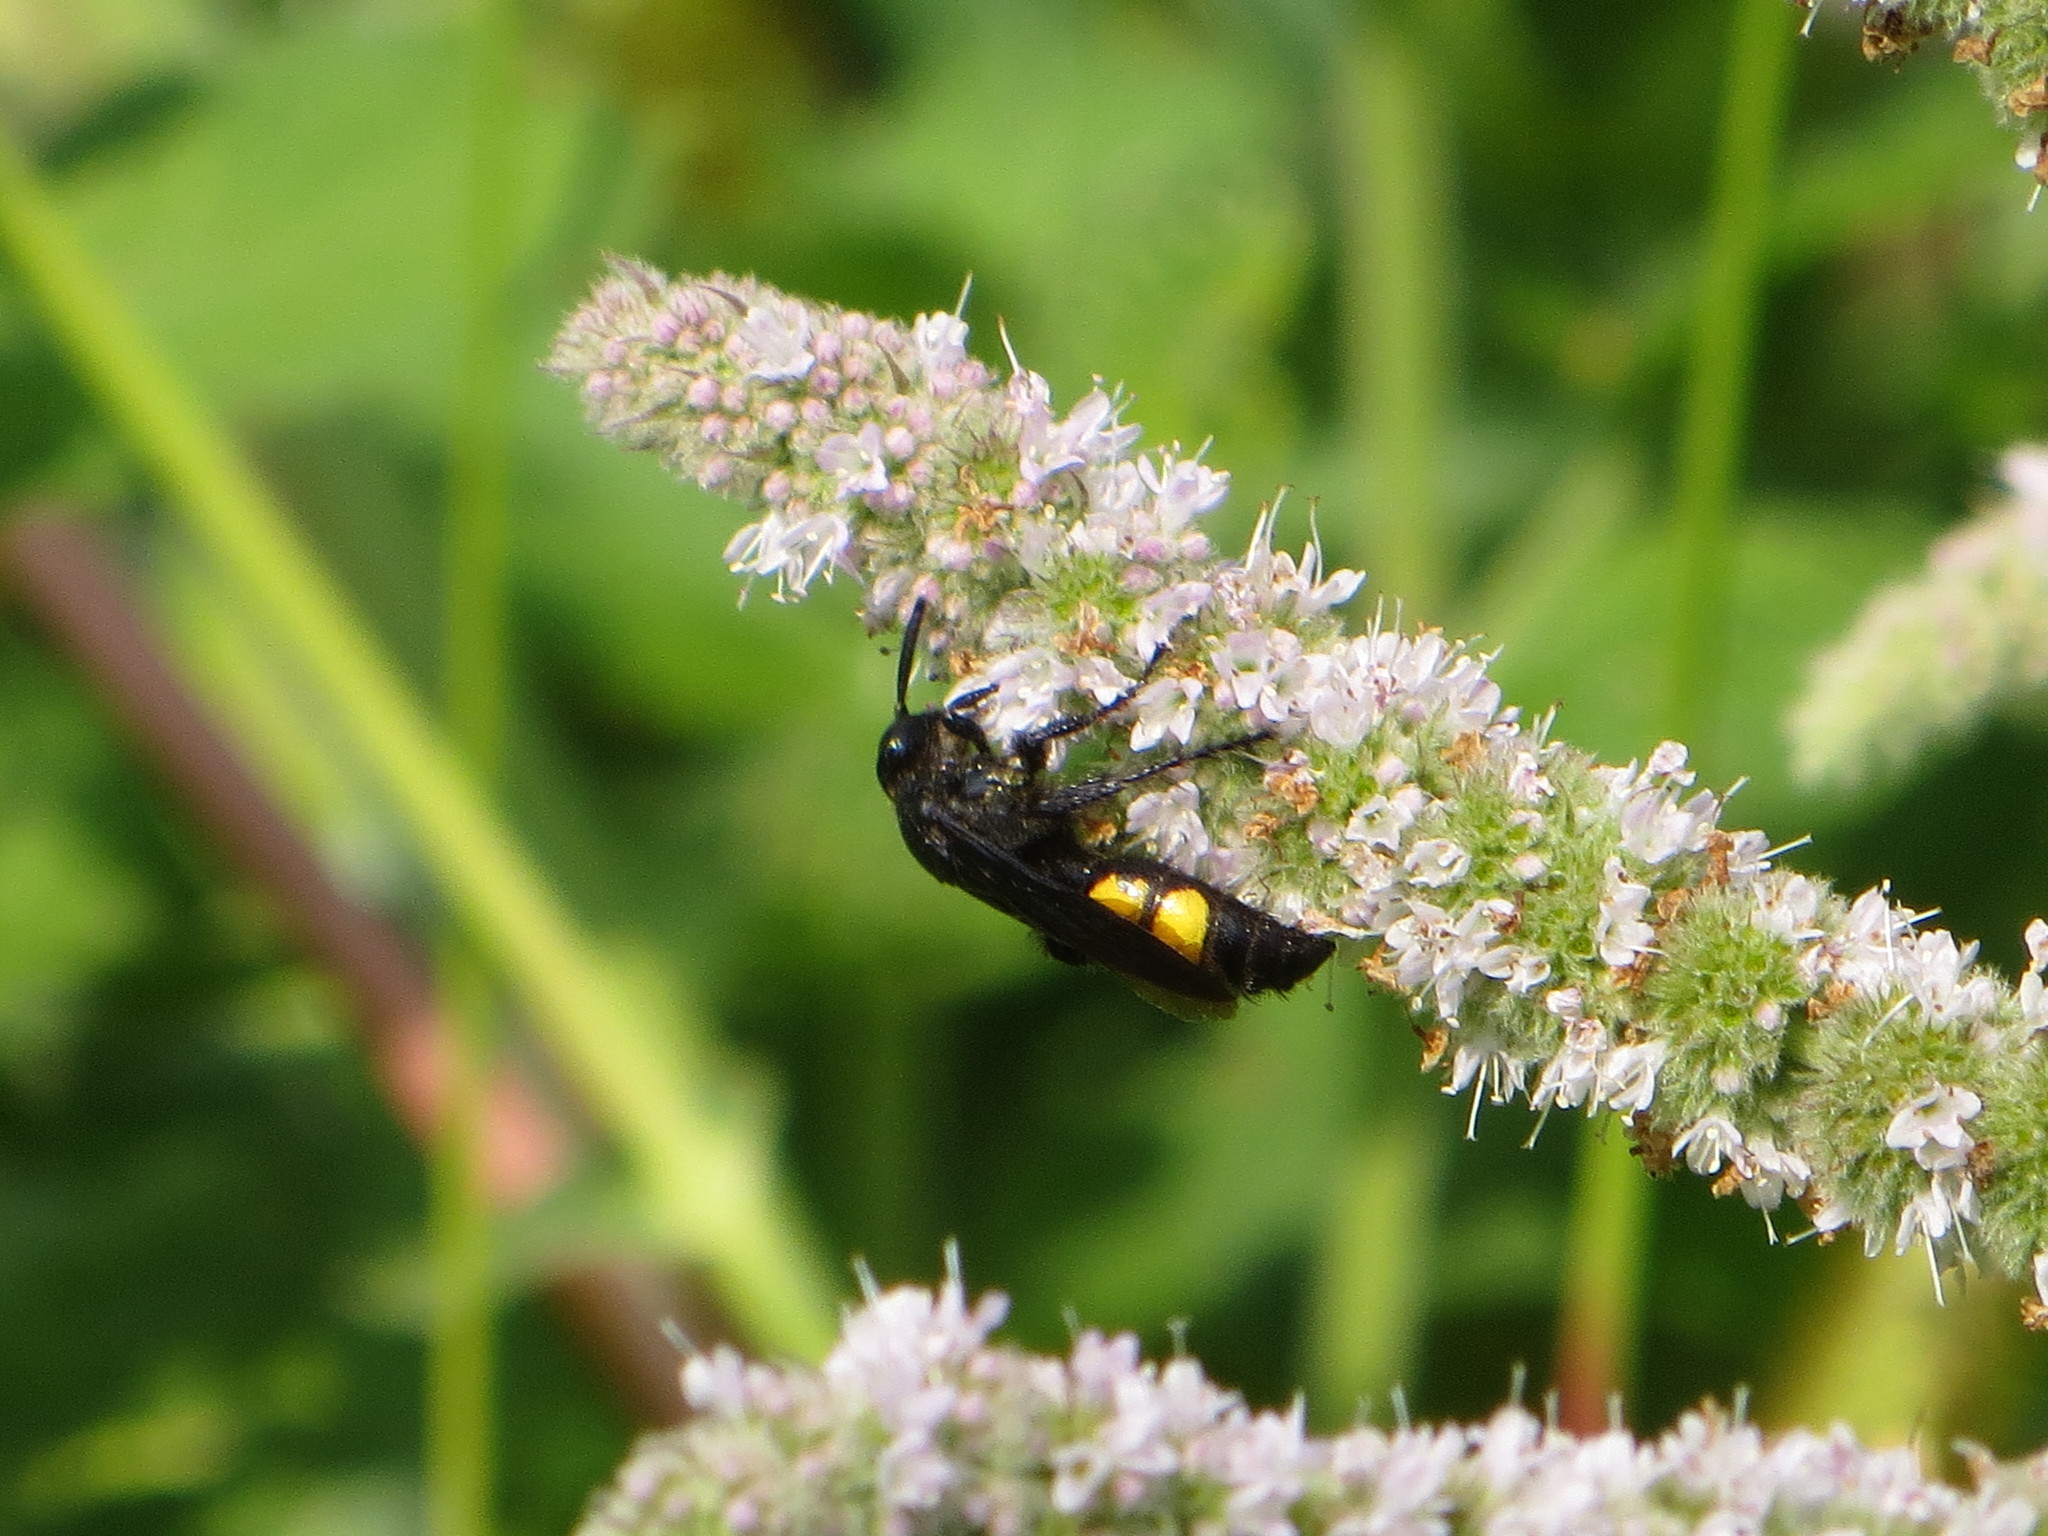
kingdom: Animalia
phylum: Arthropoda
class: Insecta
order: Hymenoptera
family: Scoliidae
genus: Scolia
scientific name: Scolia hirta
